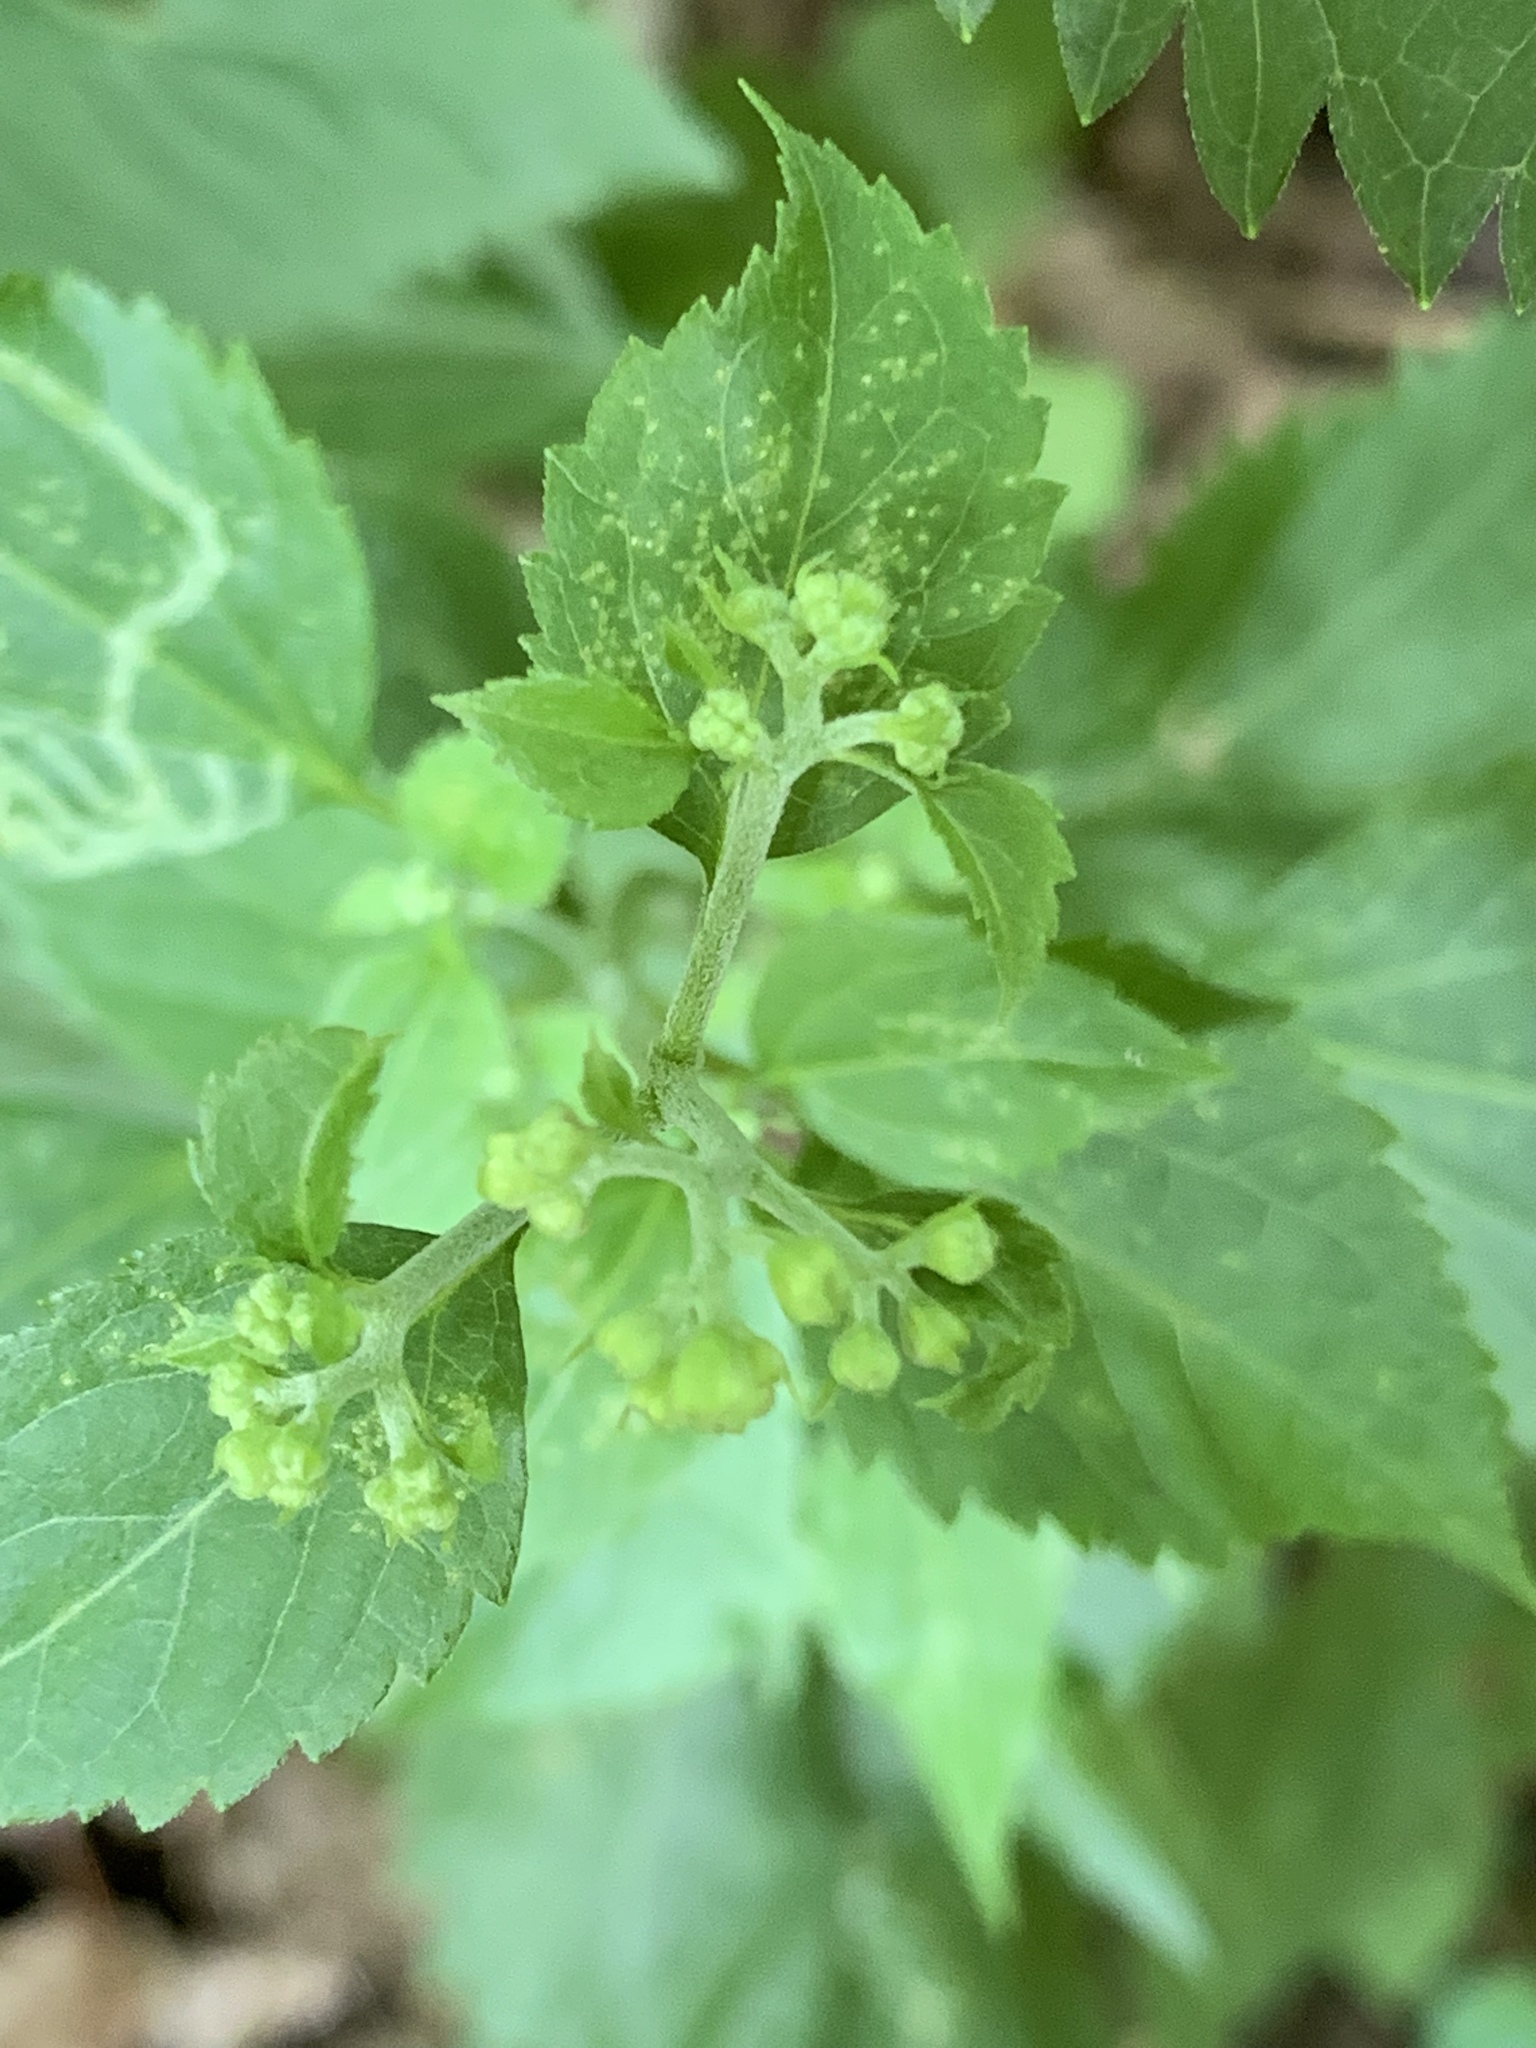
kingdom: Plantae
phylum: Tracheophyta
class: Magnoliopsida
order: Asterales
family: Asteraceae
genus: Ageratina
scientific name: Ageratina altissima
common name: White snakeroot
